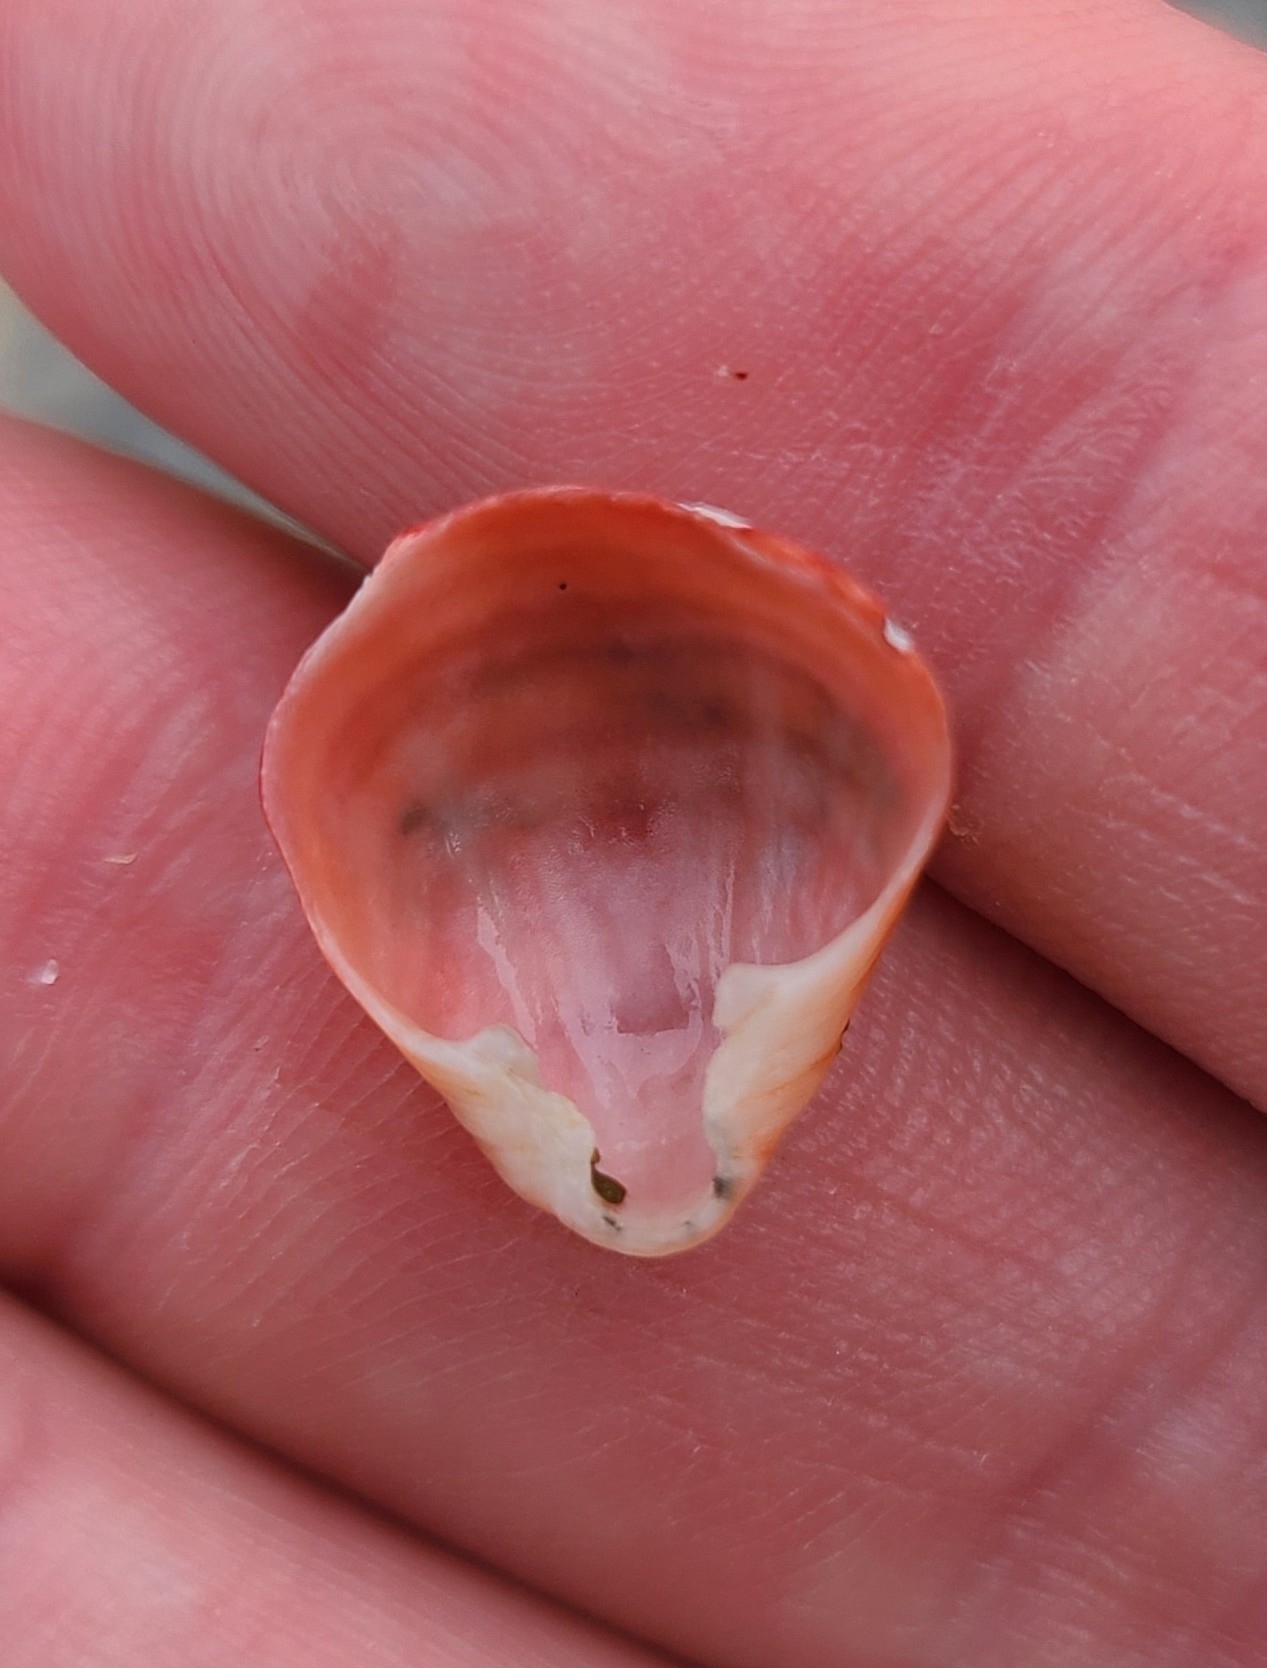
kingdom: Animalia
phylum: Brachiopoda
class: Rhynchonellata
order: Terebratulida
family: Terebratellidae
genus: Calloria
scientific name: Calloria inconspicua
